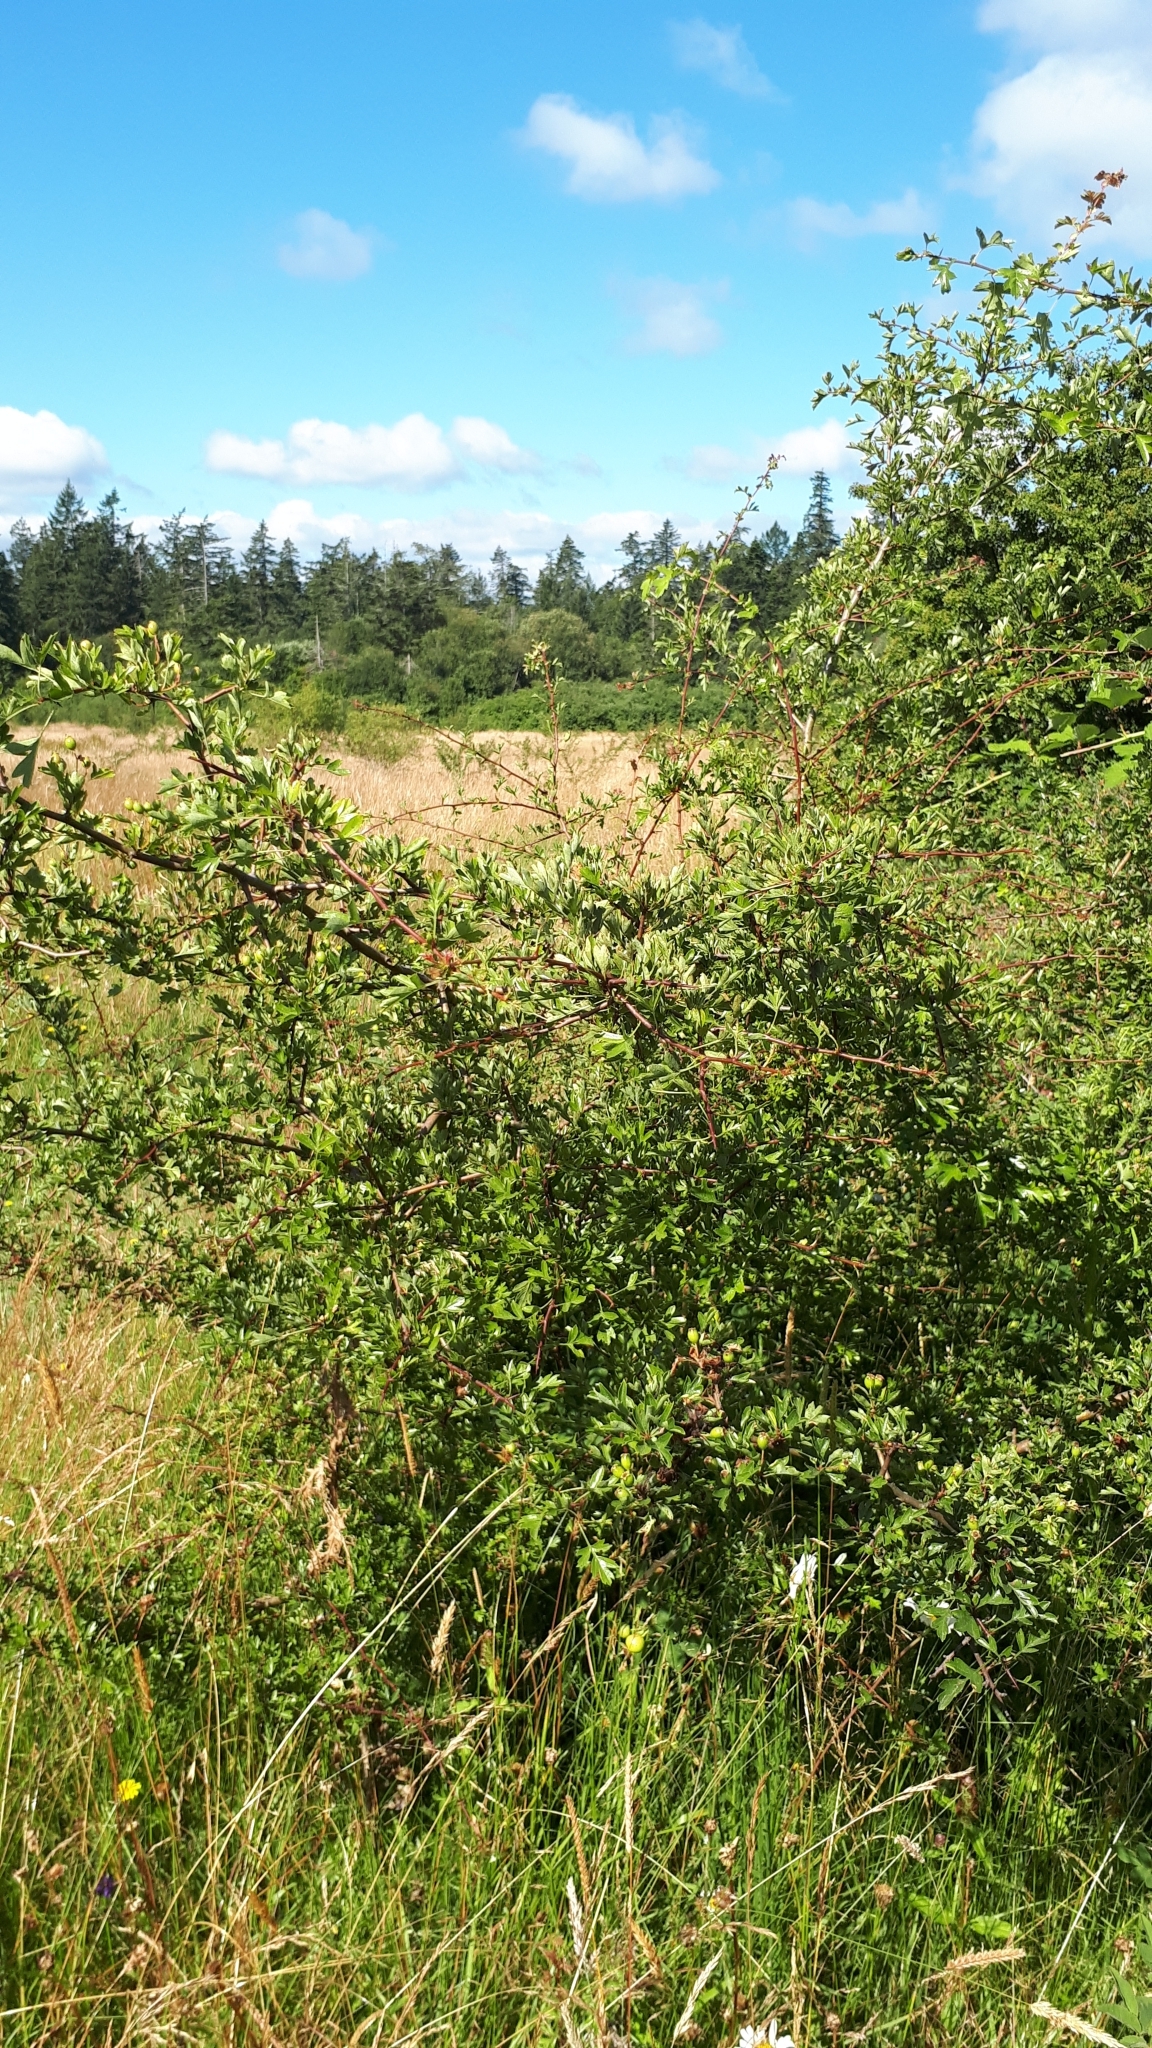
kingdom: Plantae
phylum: Tracheophyta
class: Magnoliopsida
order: Rosales
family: Rosaceae
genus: Crataegus
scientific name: Crataegus monogyna
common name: Hawthorn
